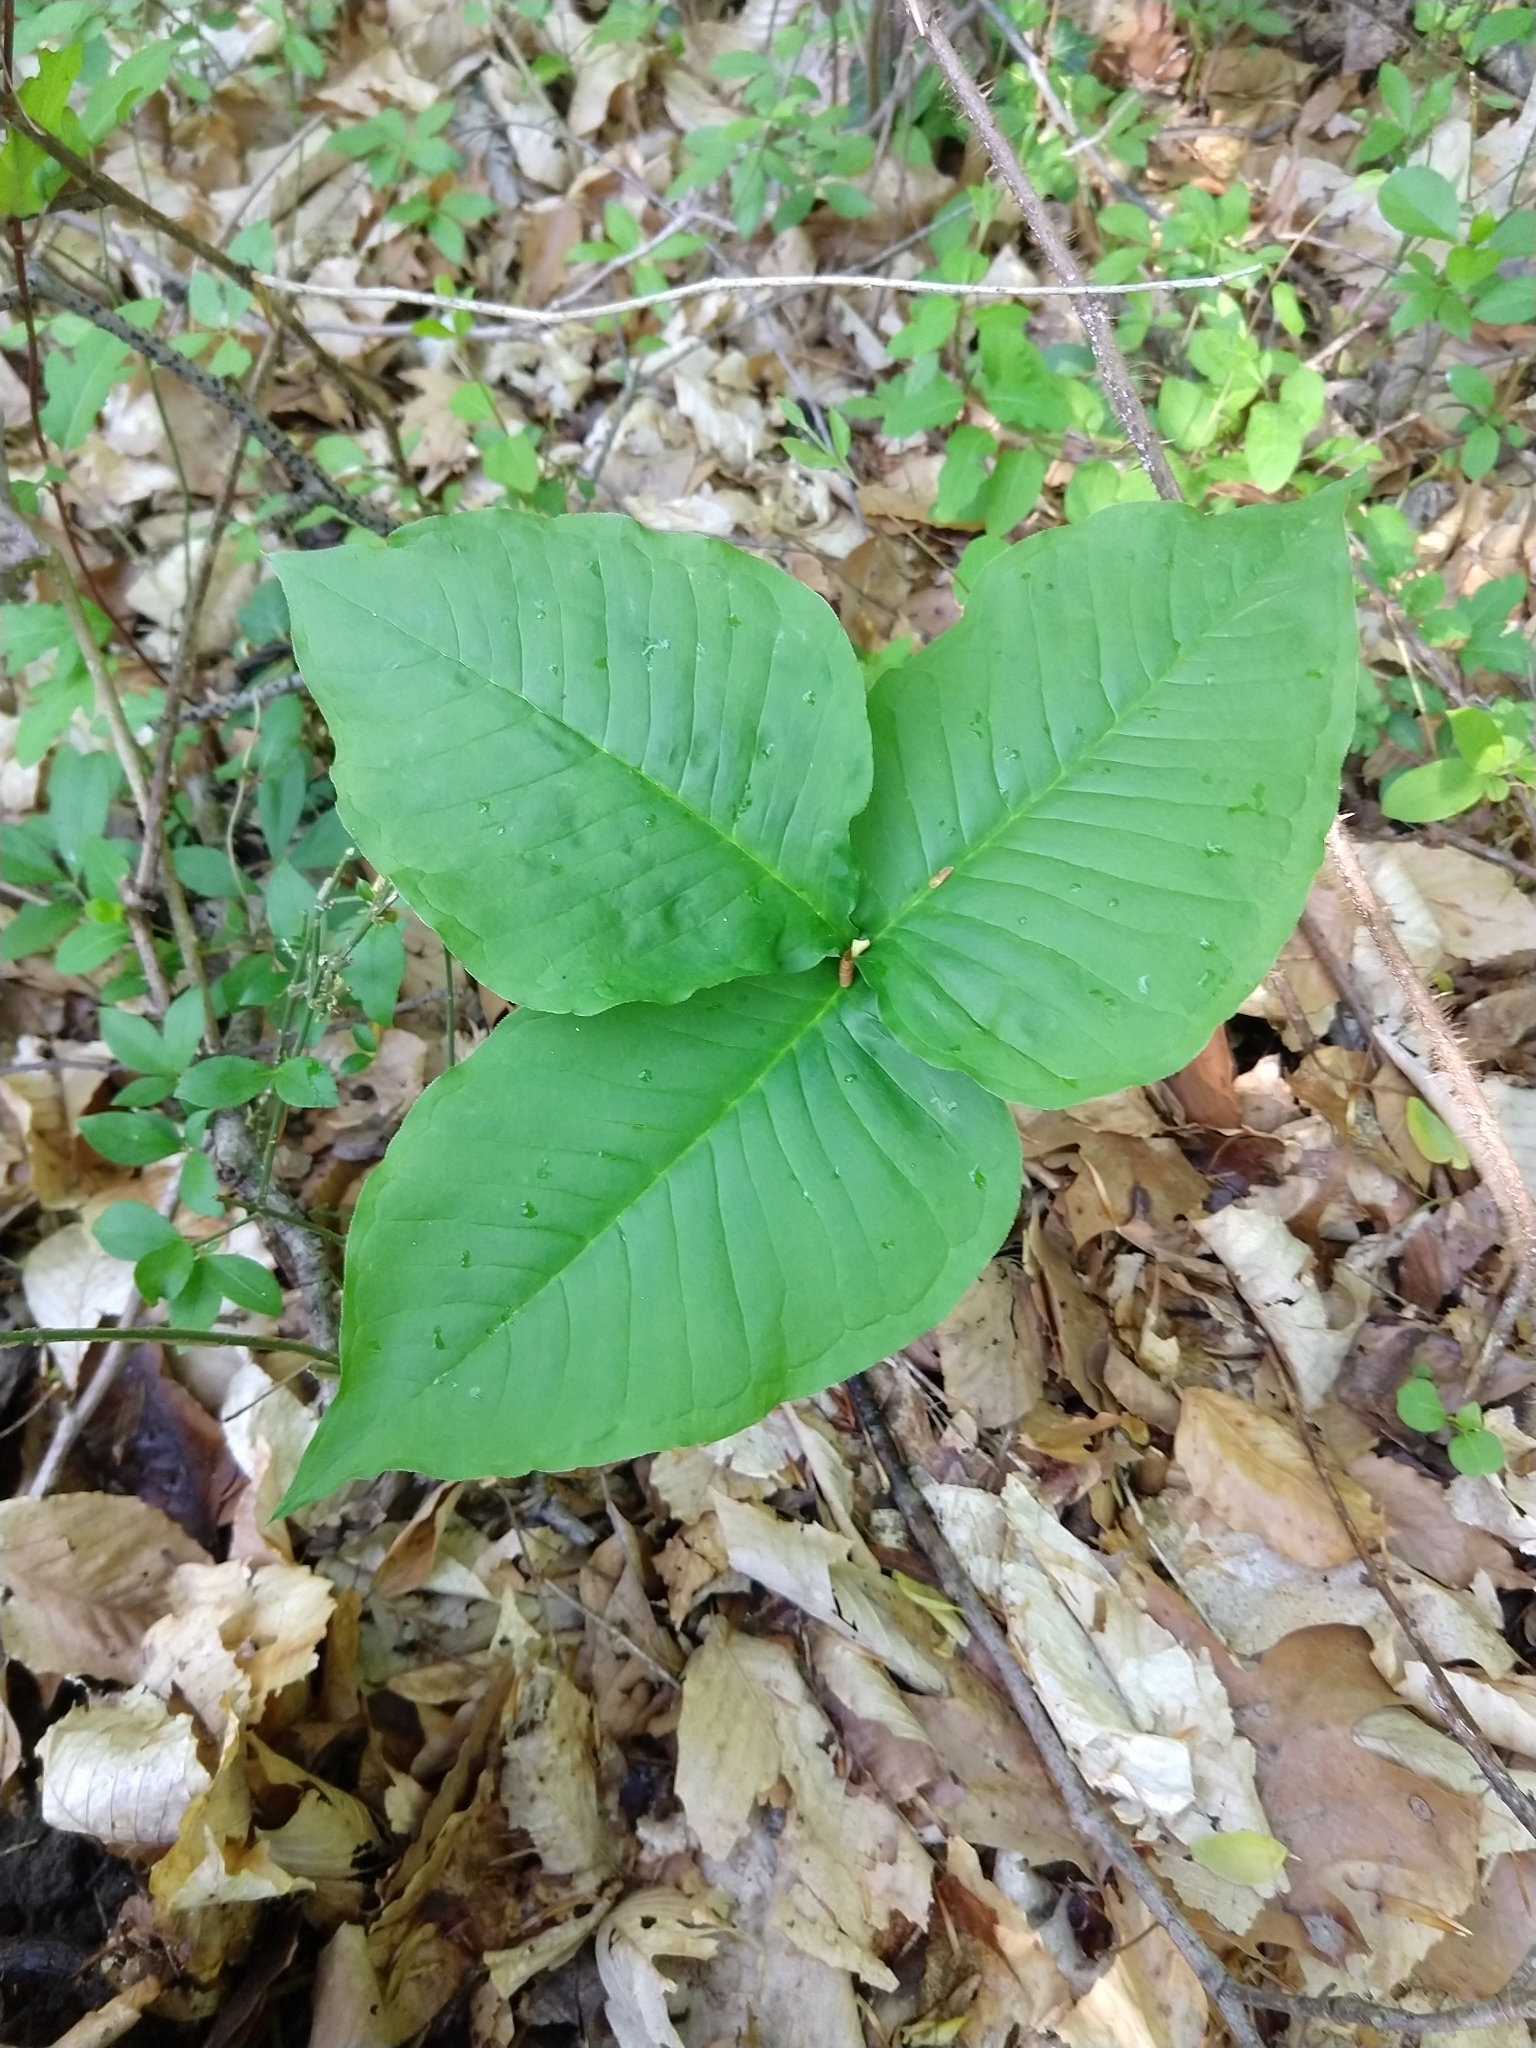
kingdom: Plantae
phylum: Tracheophyta
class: Liliopsida
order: Alismatales
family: Araceae
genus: Arisaema
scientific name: Arisaema triphyllum
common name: Jack-in-the-pulpit
